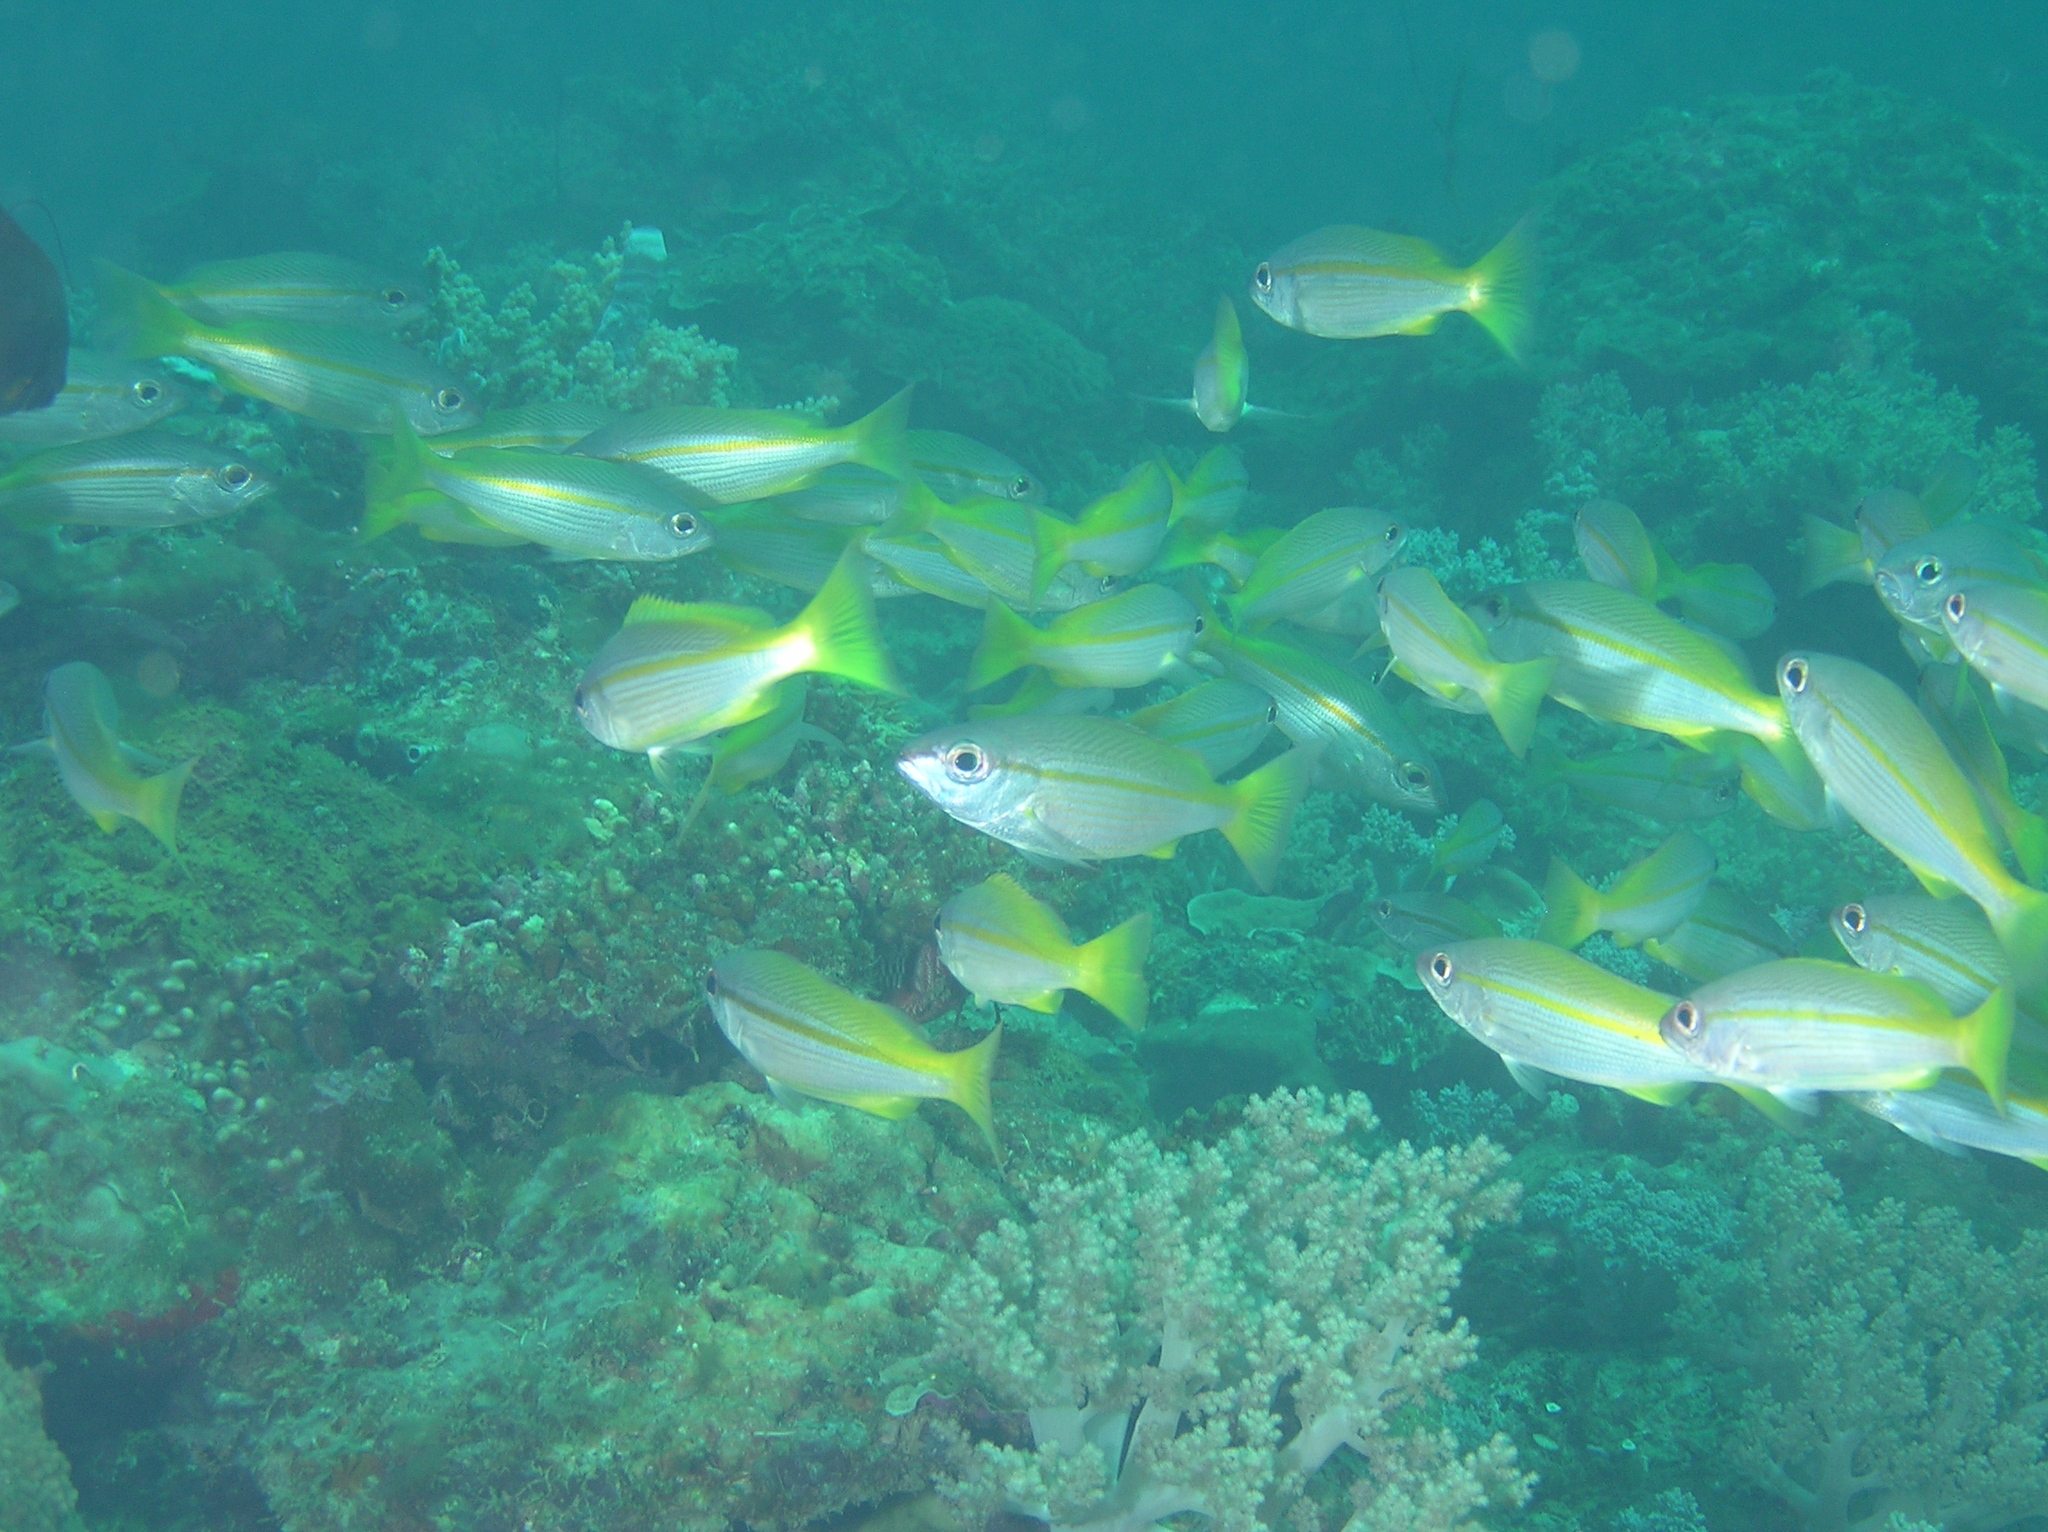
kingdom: Animalia
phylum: Chordata
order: Perciformes
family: Lutjanidae
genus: Lutjanus
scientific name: Lutjanus lutjanus
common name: Bigeye snapper
